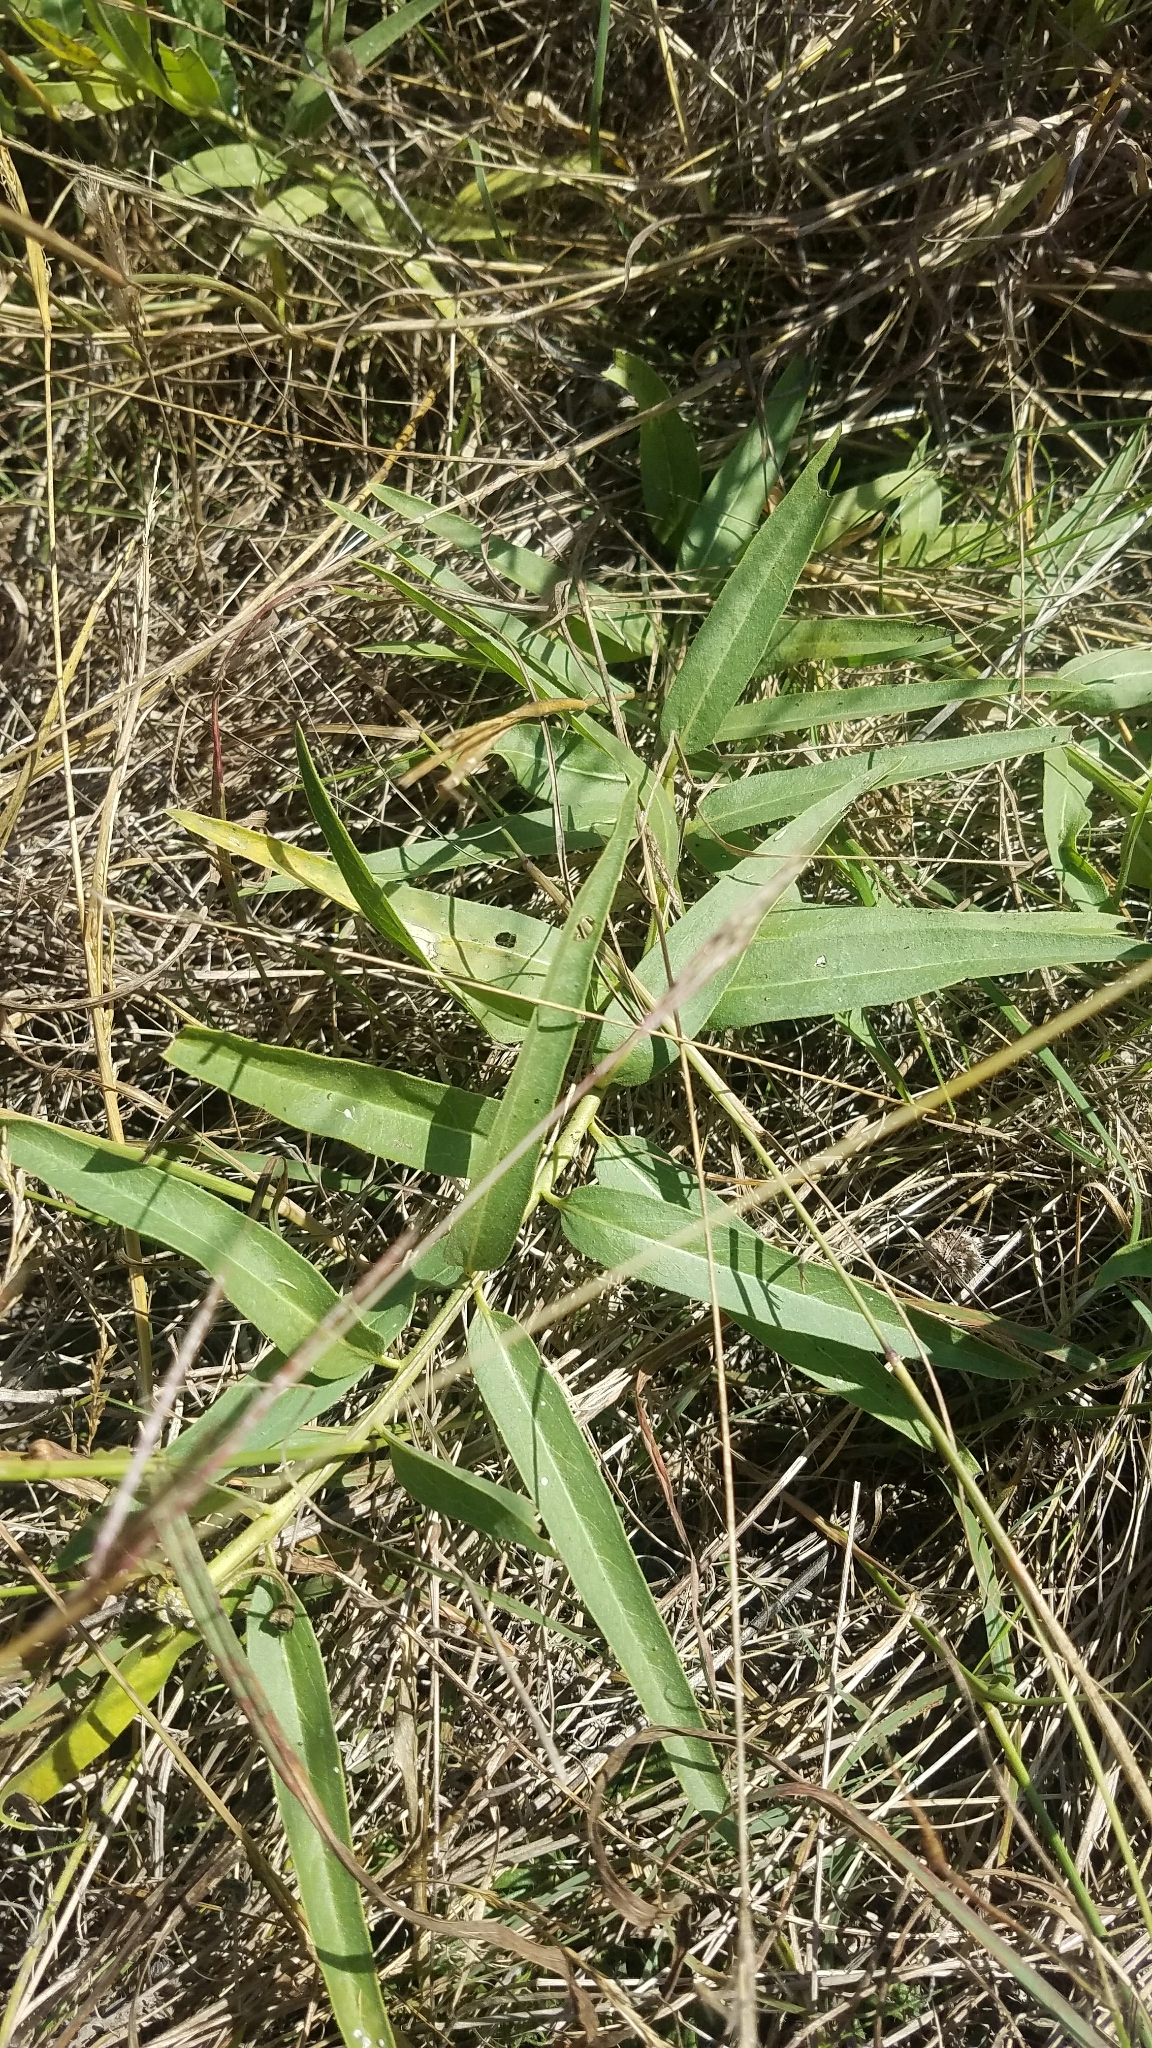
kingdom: Plantae
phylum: Tracheophyta
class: Magnoliopsida
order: Gentianales
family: Apocynaceae
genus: Asclepias
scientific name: Asclepias asperula
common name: Antelope horns
